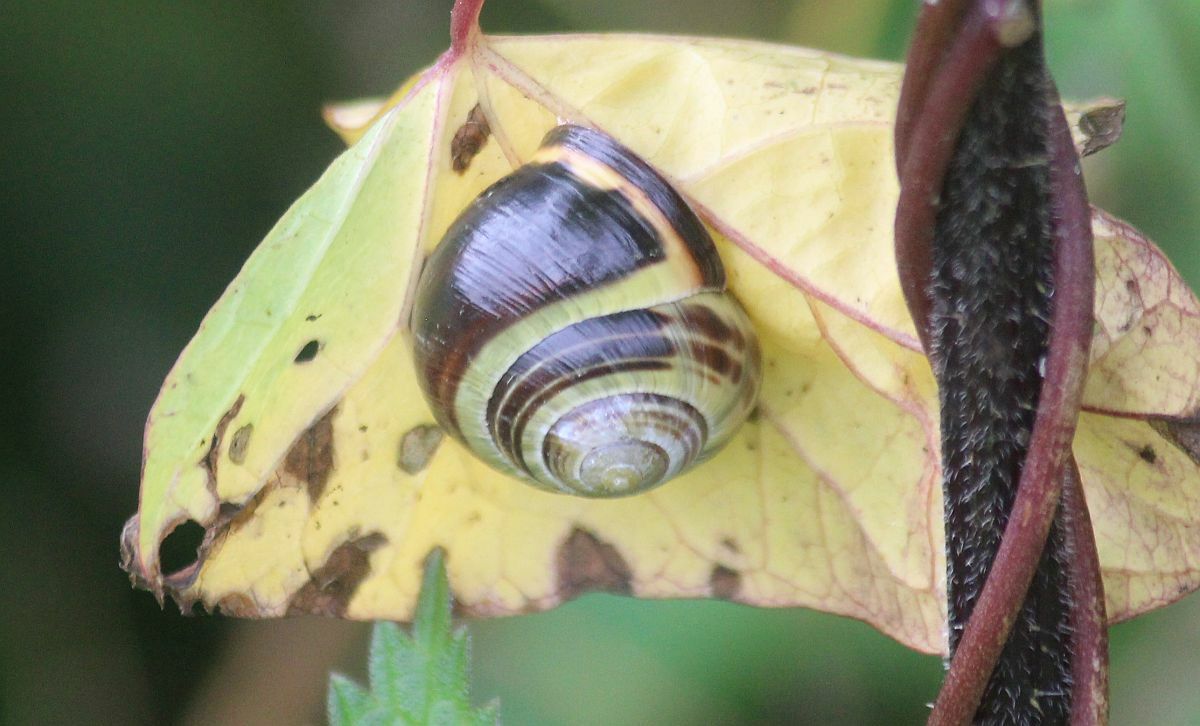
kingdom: Animalia
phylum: Mollusca
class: Gastropoda
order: Stylommatophora
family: Helicidae
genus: Cepaea
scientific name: Cepaea nemoralis
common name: Grovesnail
